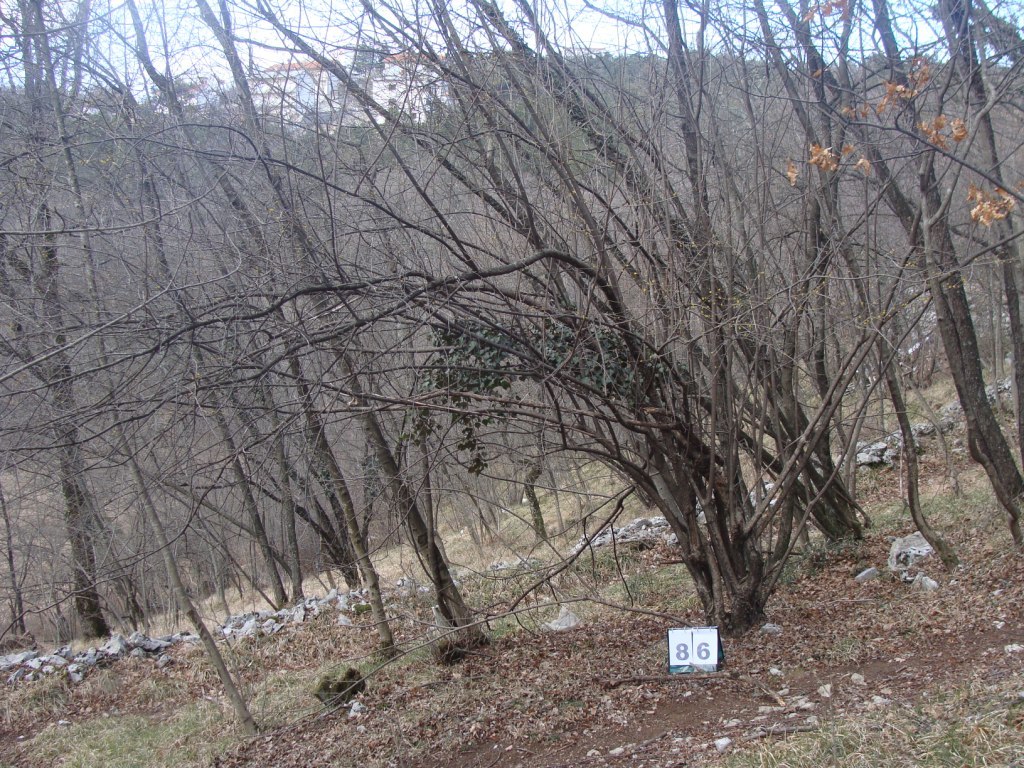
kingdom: Plantae
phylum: Tracheophyta
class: Magnoliopsida
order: Cornales
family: Cornaceae
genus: Cornus
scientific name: Cornus mas
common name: Cornelian-cherry
